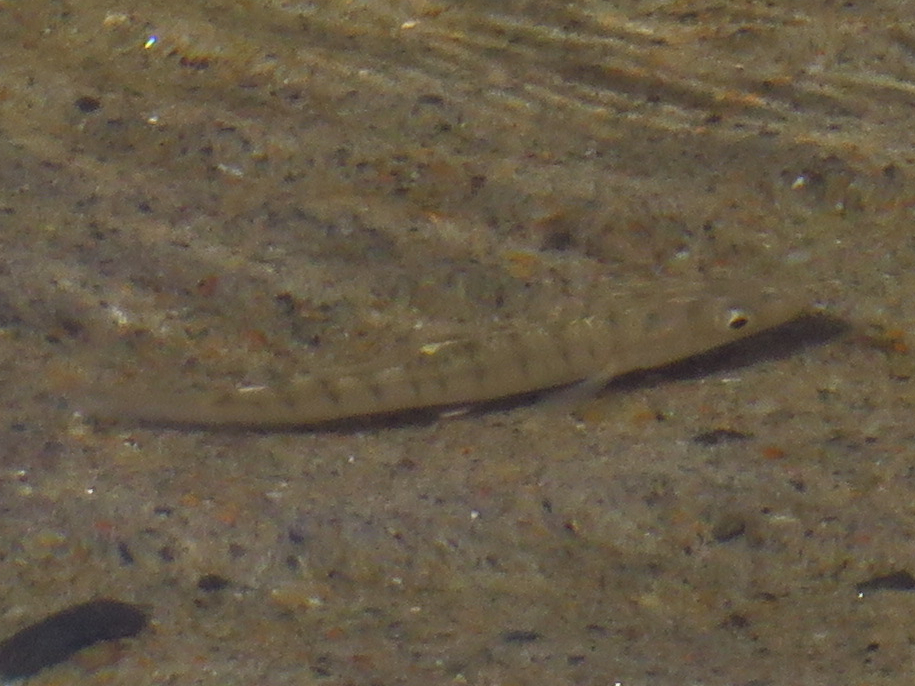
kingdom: Animalia
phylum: Chordata
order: Cyprinodontiformes
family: Fundulidae
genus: Fundulus
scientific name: Fundulus majalis
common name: Striped killifish
